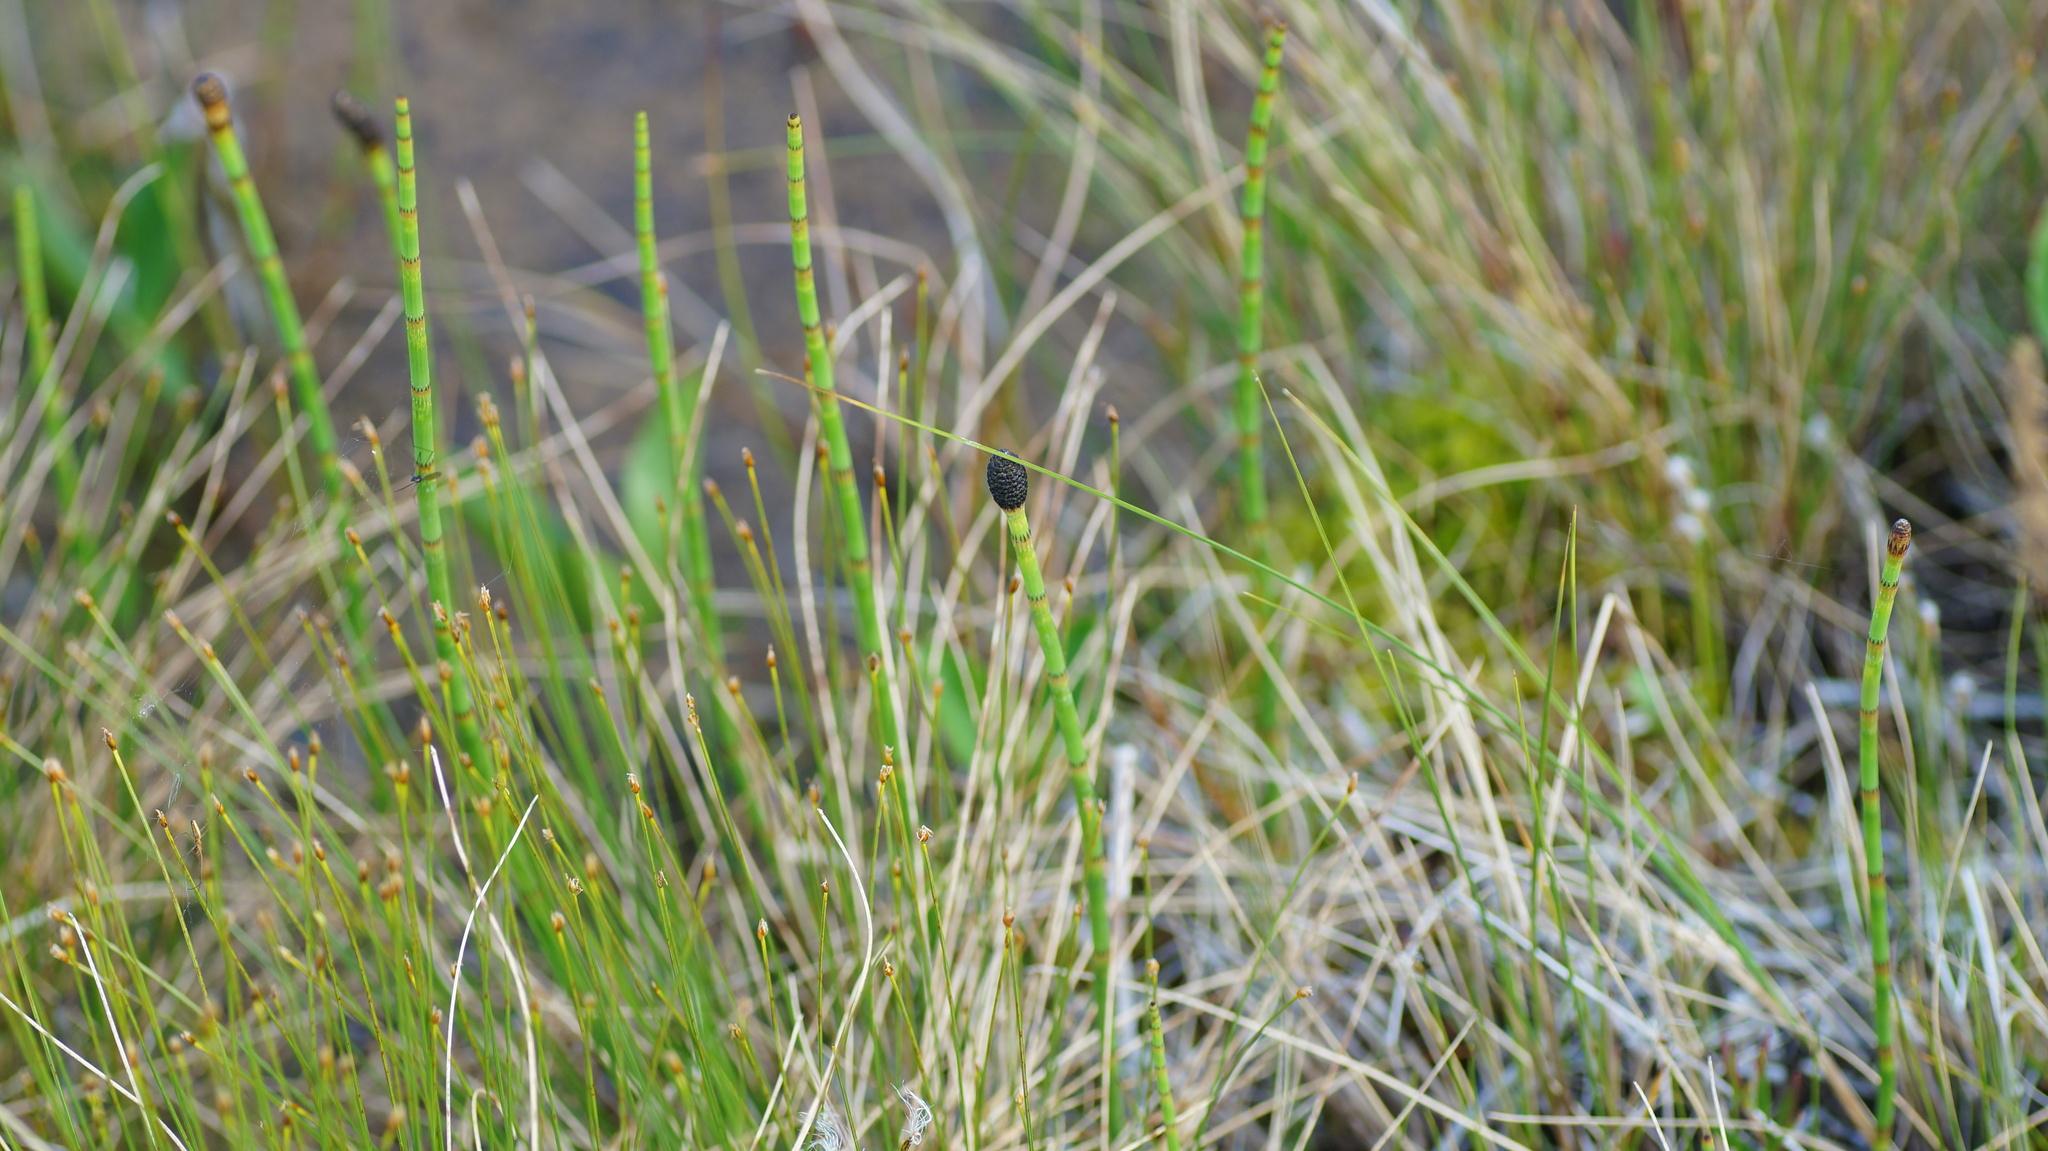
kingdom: Plantae
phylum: Tracheophyta
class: Polypodiopsida
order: Equisetales
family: Equisetaceae
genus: Equisetum
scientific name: Equisetum fluviatile
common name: Water horsetail
